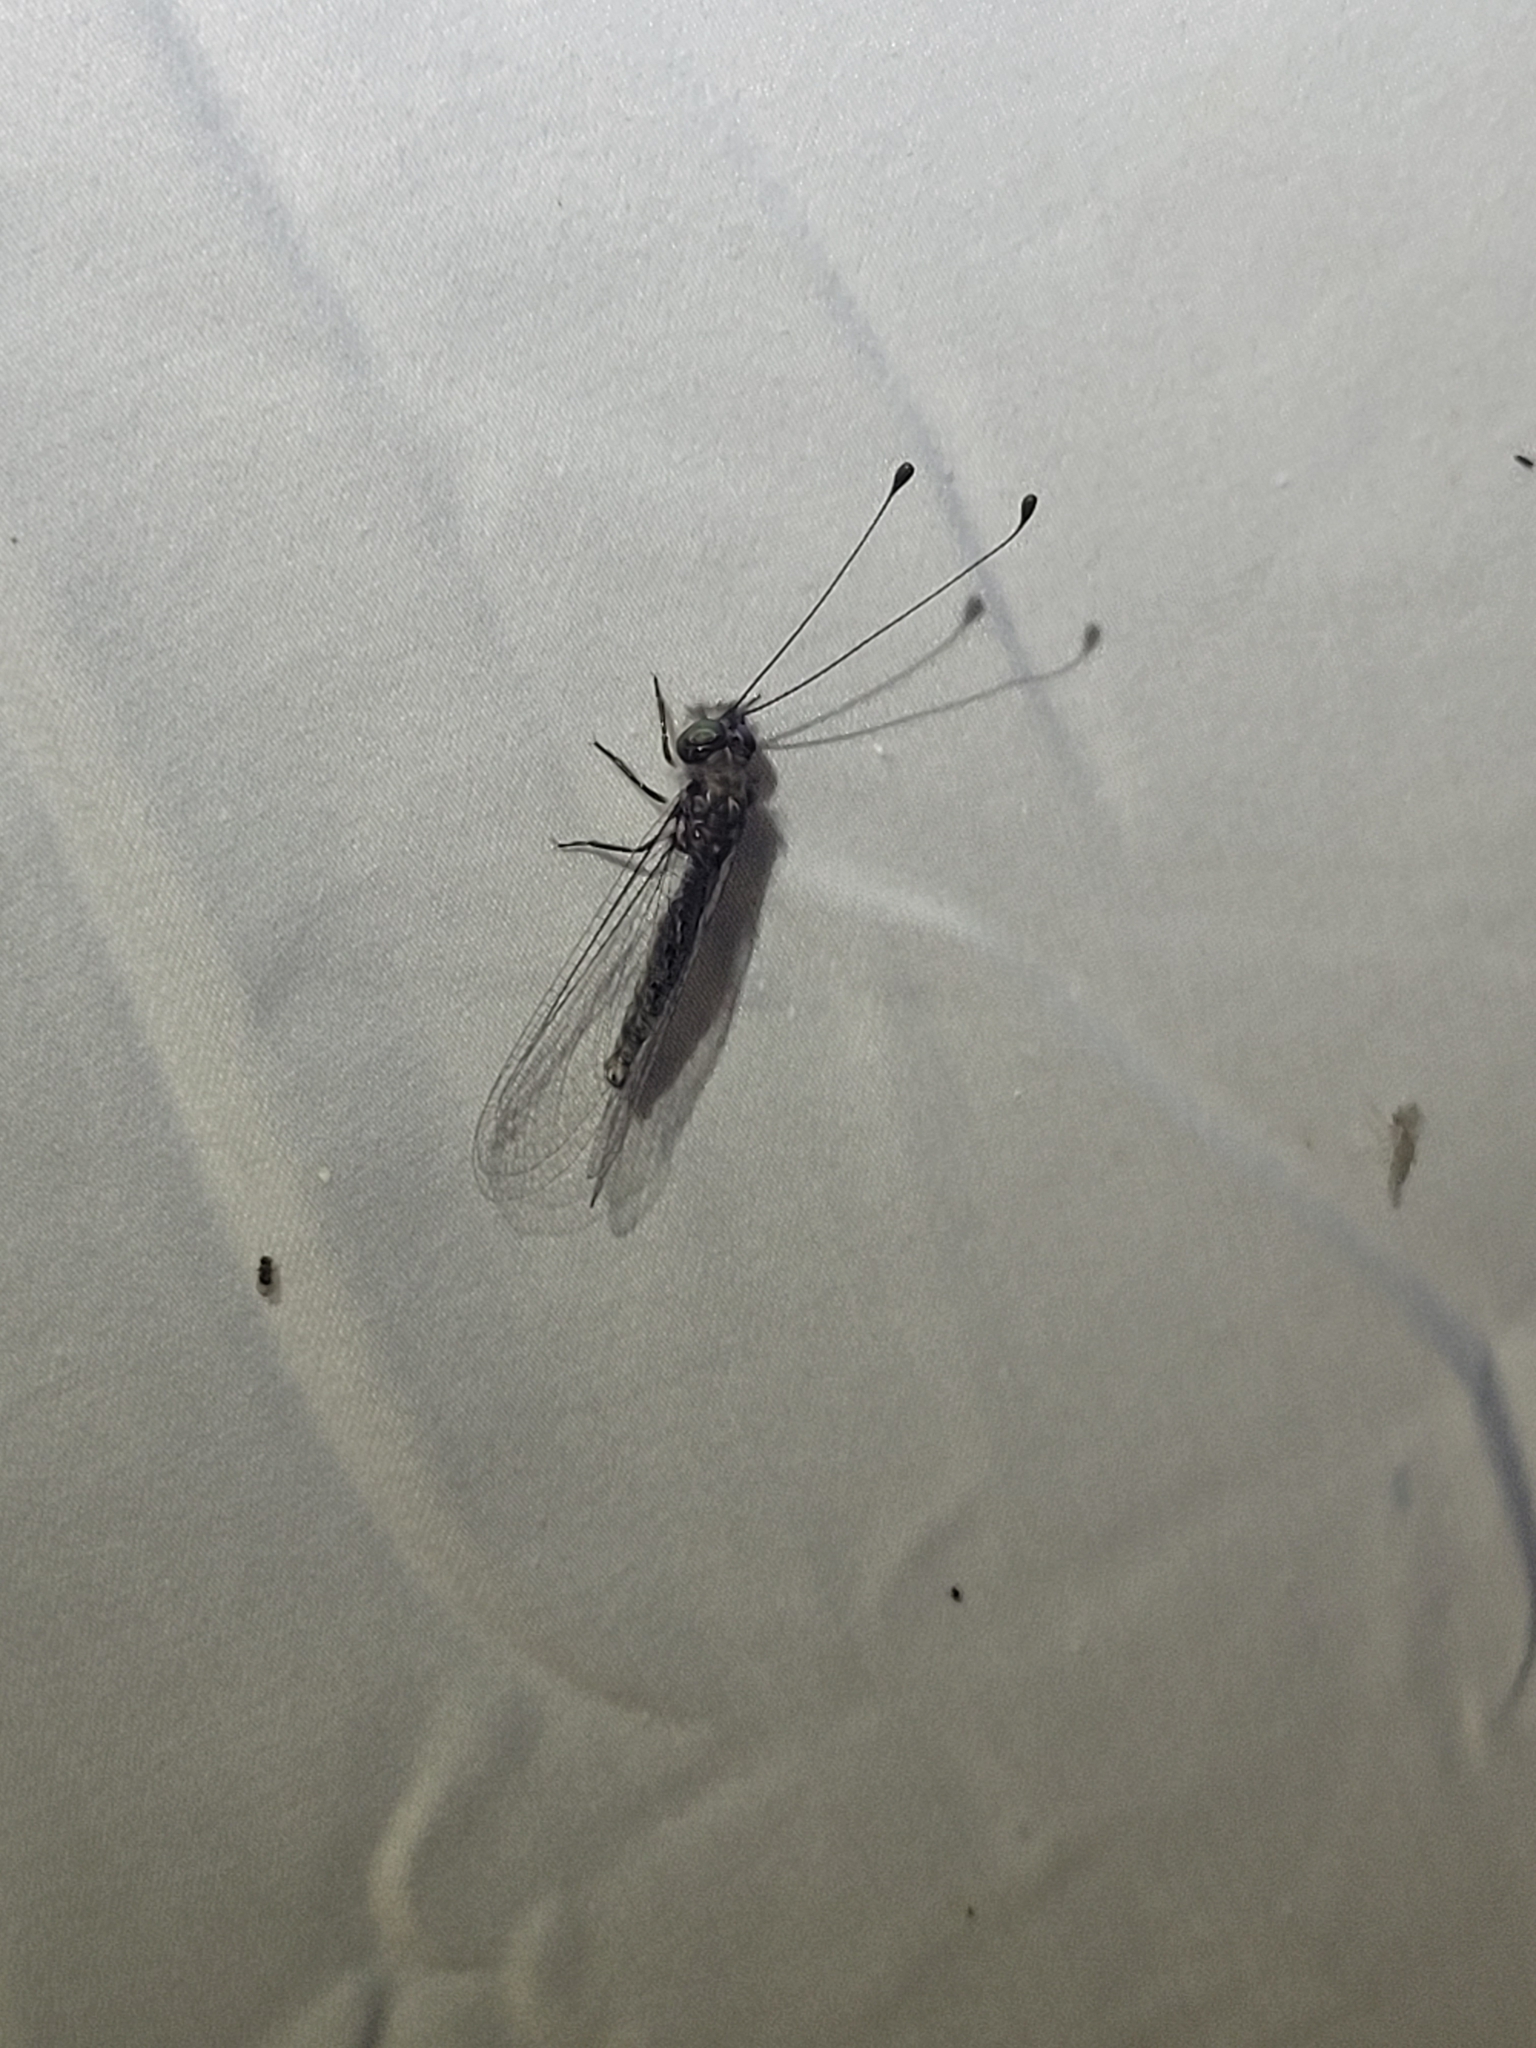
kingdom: Animalia
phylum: Arthropoda
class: Insecta
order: Neuroptera
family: Ascalaphidae
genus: Ululodes
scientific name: Ululodes quadripunctatus
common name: Four-spotted owlfly
